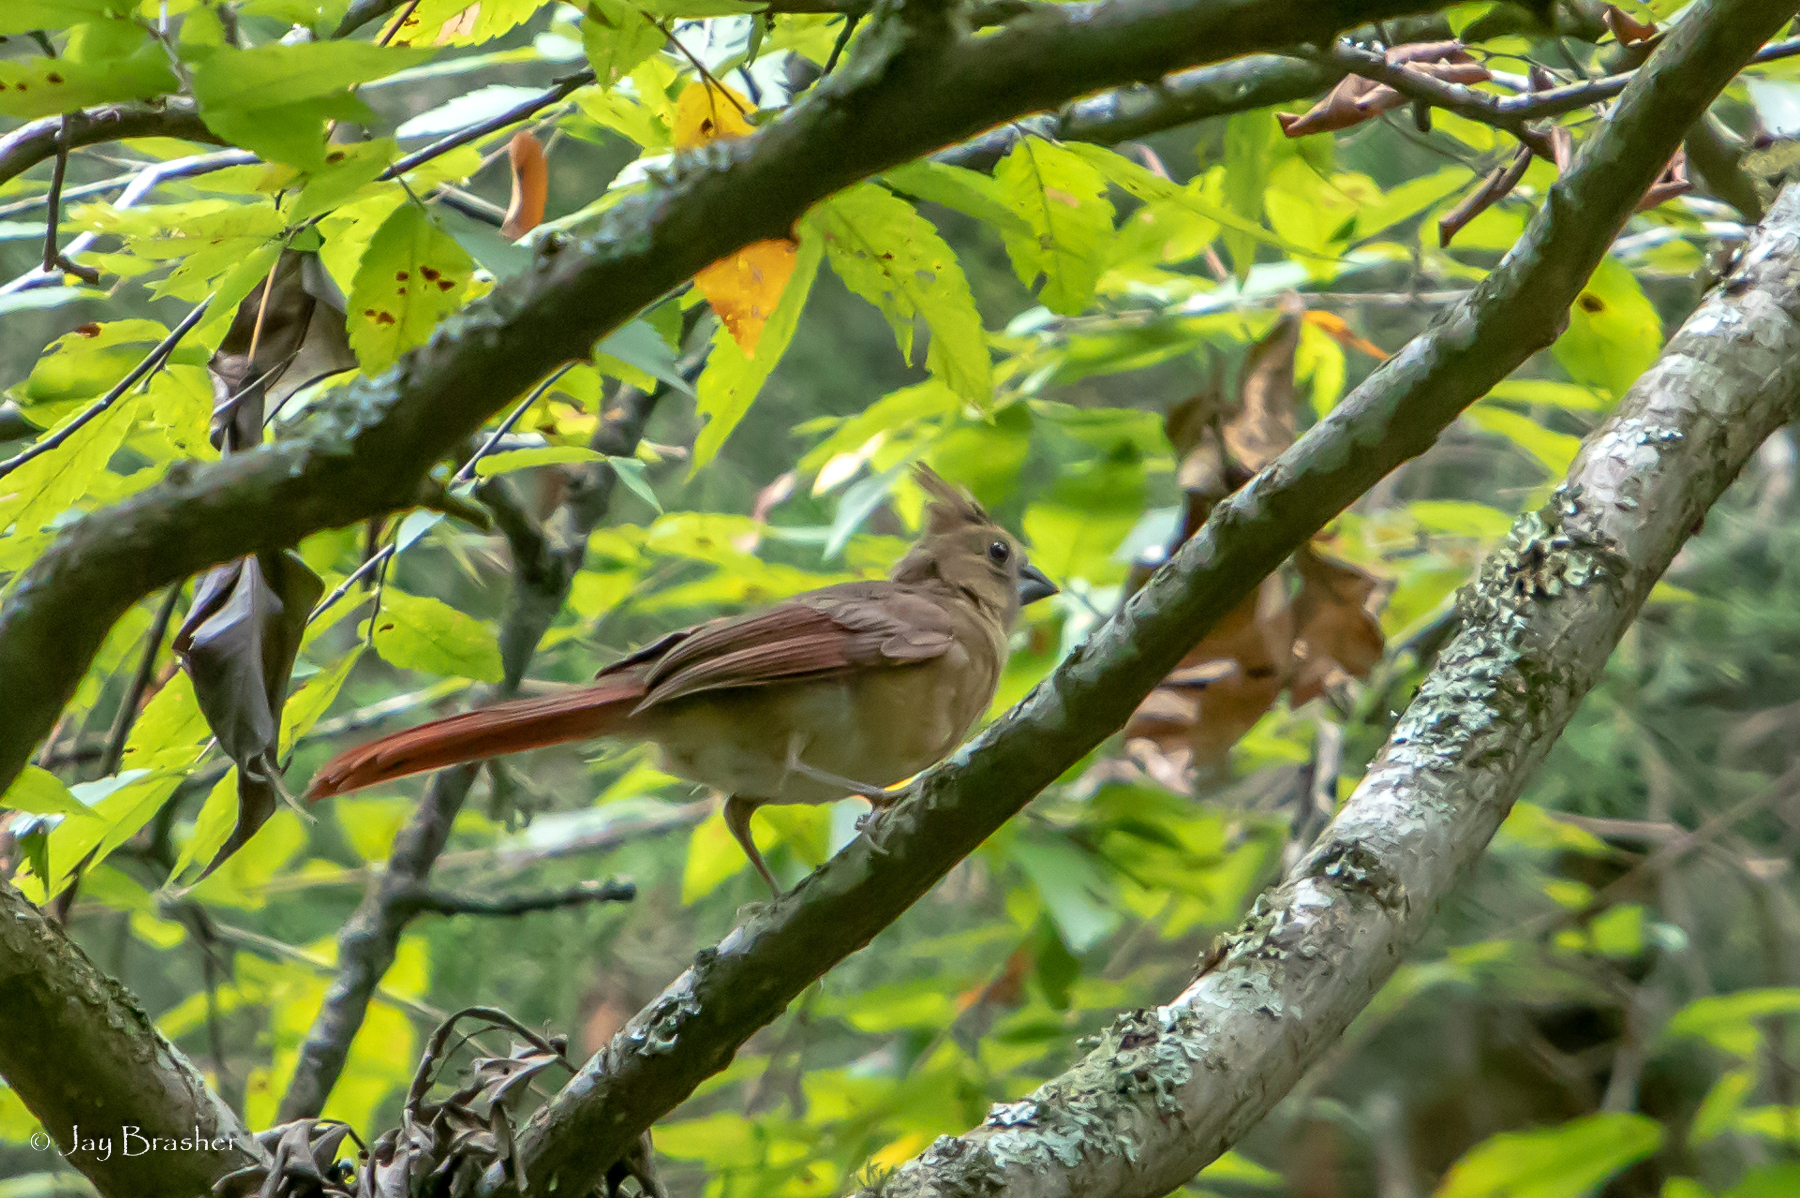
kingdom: Animalia
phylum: Chordata
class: Aves
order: Passeriformes
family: Cardinalidae
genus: Cardinalis
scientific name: Cardinalis cardinalis
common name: Northern cardinal
